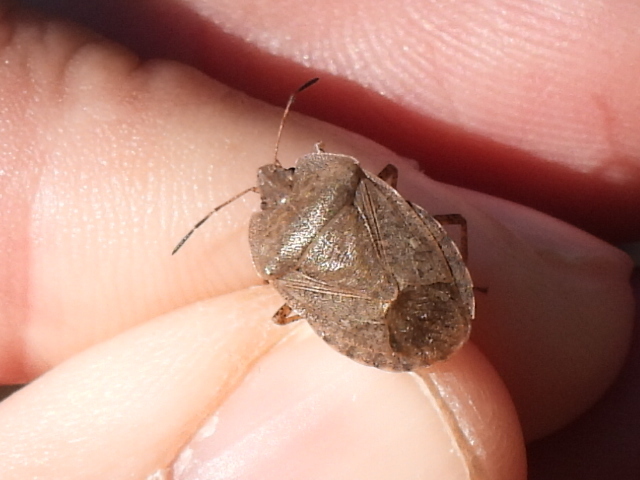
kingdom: Animalia
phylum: Arthropoda
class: Insecta
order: Hemiptera
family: Pentatomidae
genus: Menecles
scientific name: Menecles insertus
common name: Elf shoe stink bug
